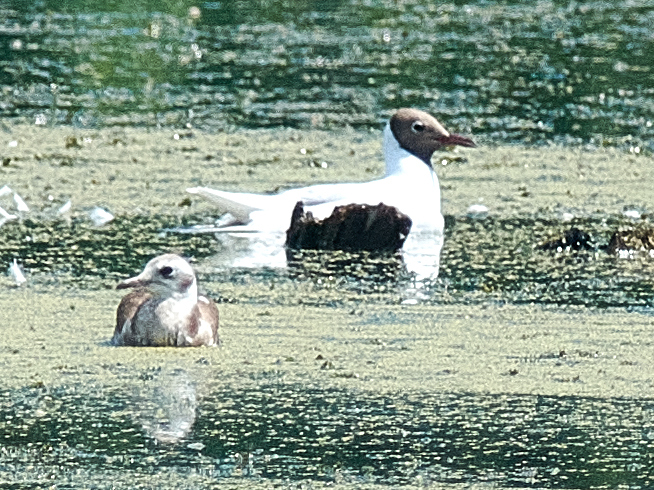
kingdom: Animalia
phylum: Chordata
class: Aves
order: Charadriiformes
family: Laridae
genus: Chroicocephalus
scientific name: Chroicocephalus ridibundus
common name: Black-headed gull
